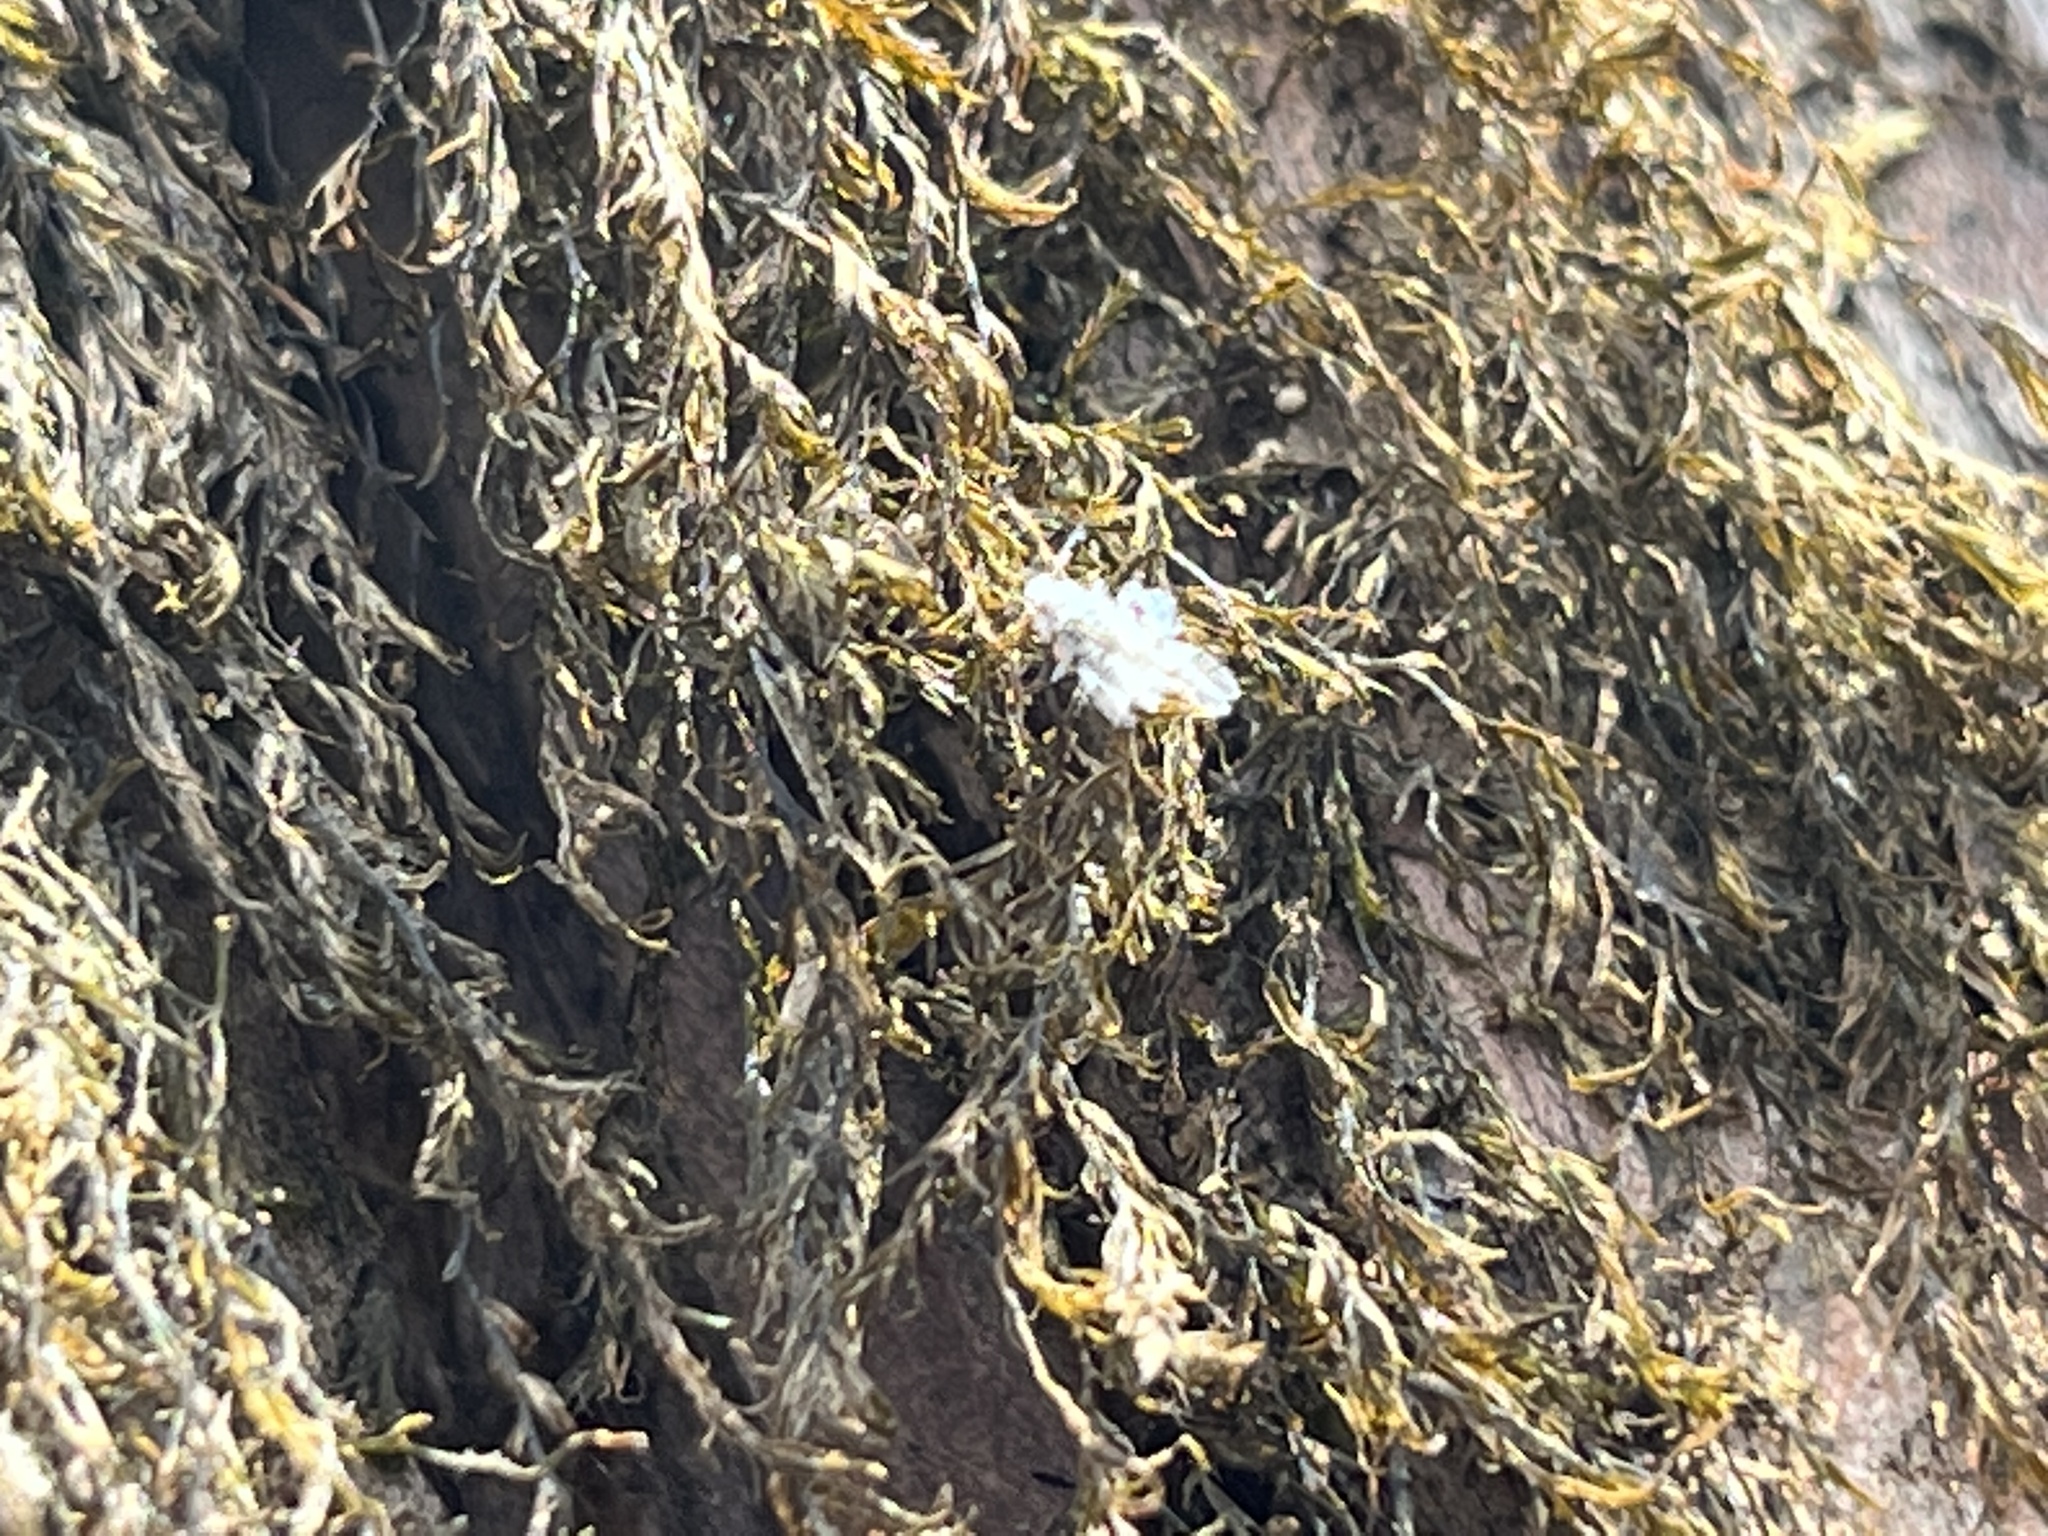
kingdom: Animalia
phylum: Arthropoda
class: Insecta
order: Hemiptera
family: Aphididae
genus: Shivaphis
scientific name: Shivaphis celti
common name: Asian wooly hackberry aphid
